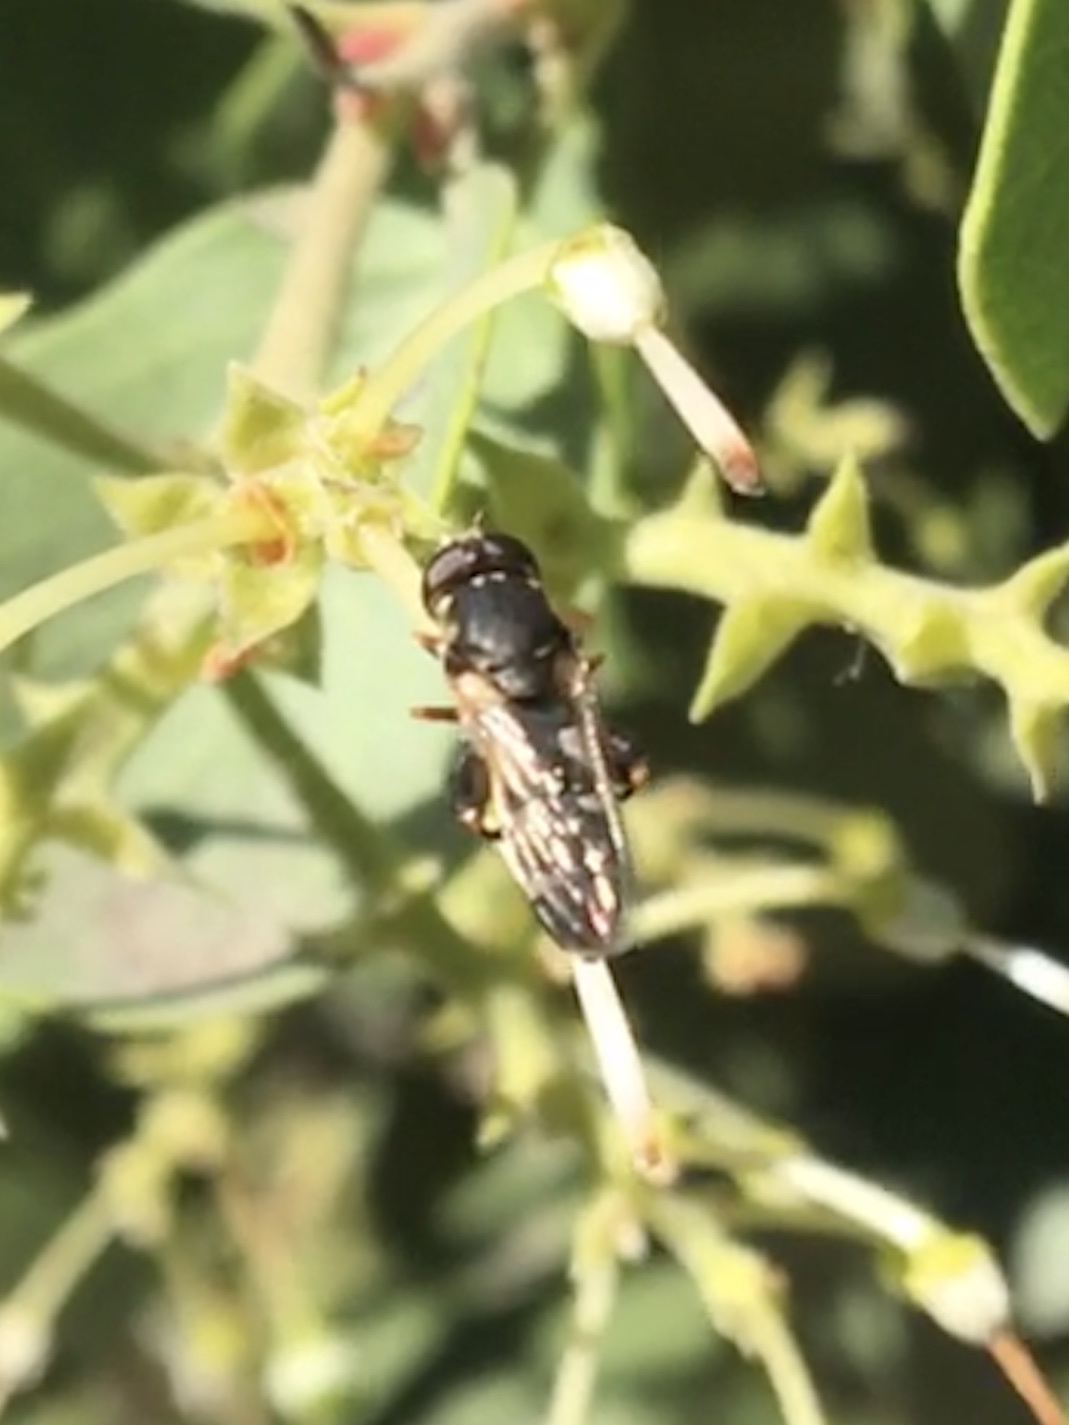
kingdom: Animalia
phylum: Arthropoda
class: Insecta
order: Diptera
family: Syrphidae
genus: Syritta
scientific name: Syritta pipiens
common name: Hover fly
